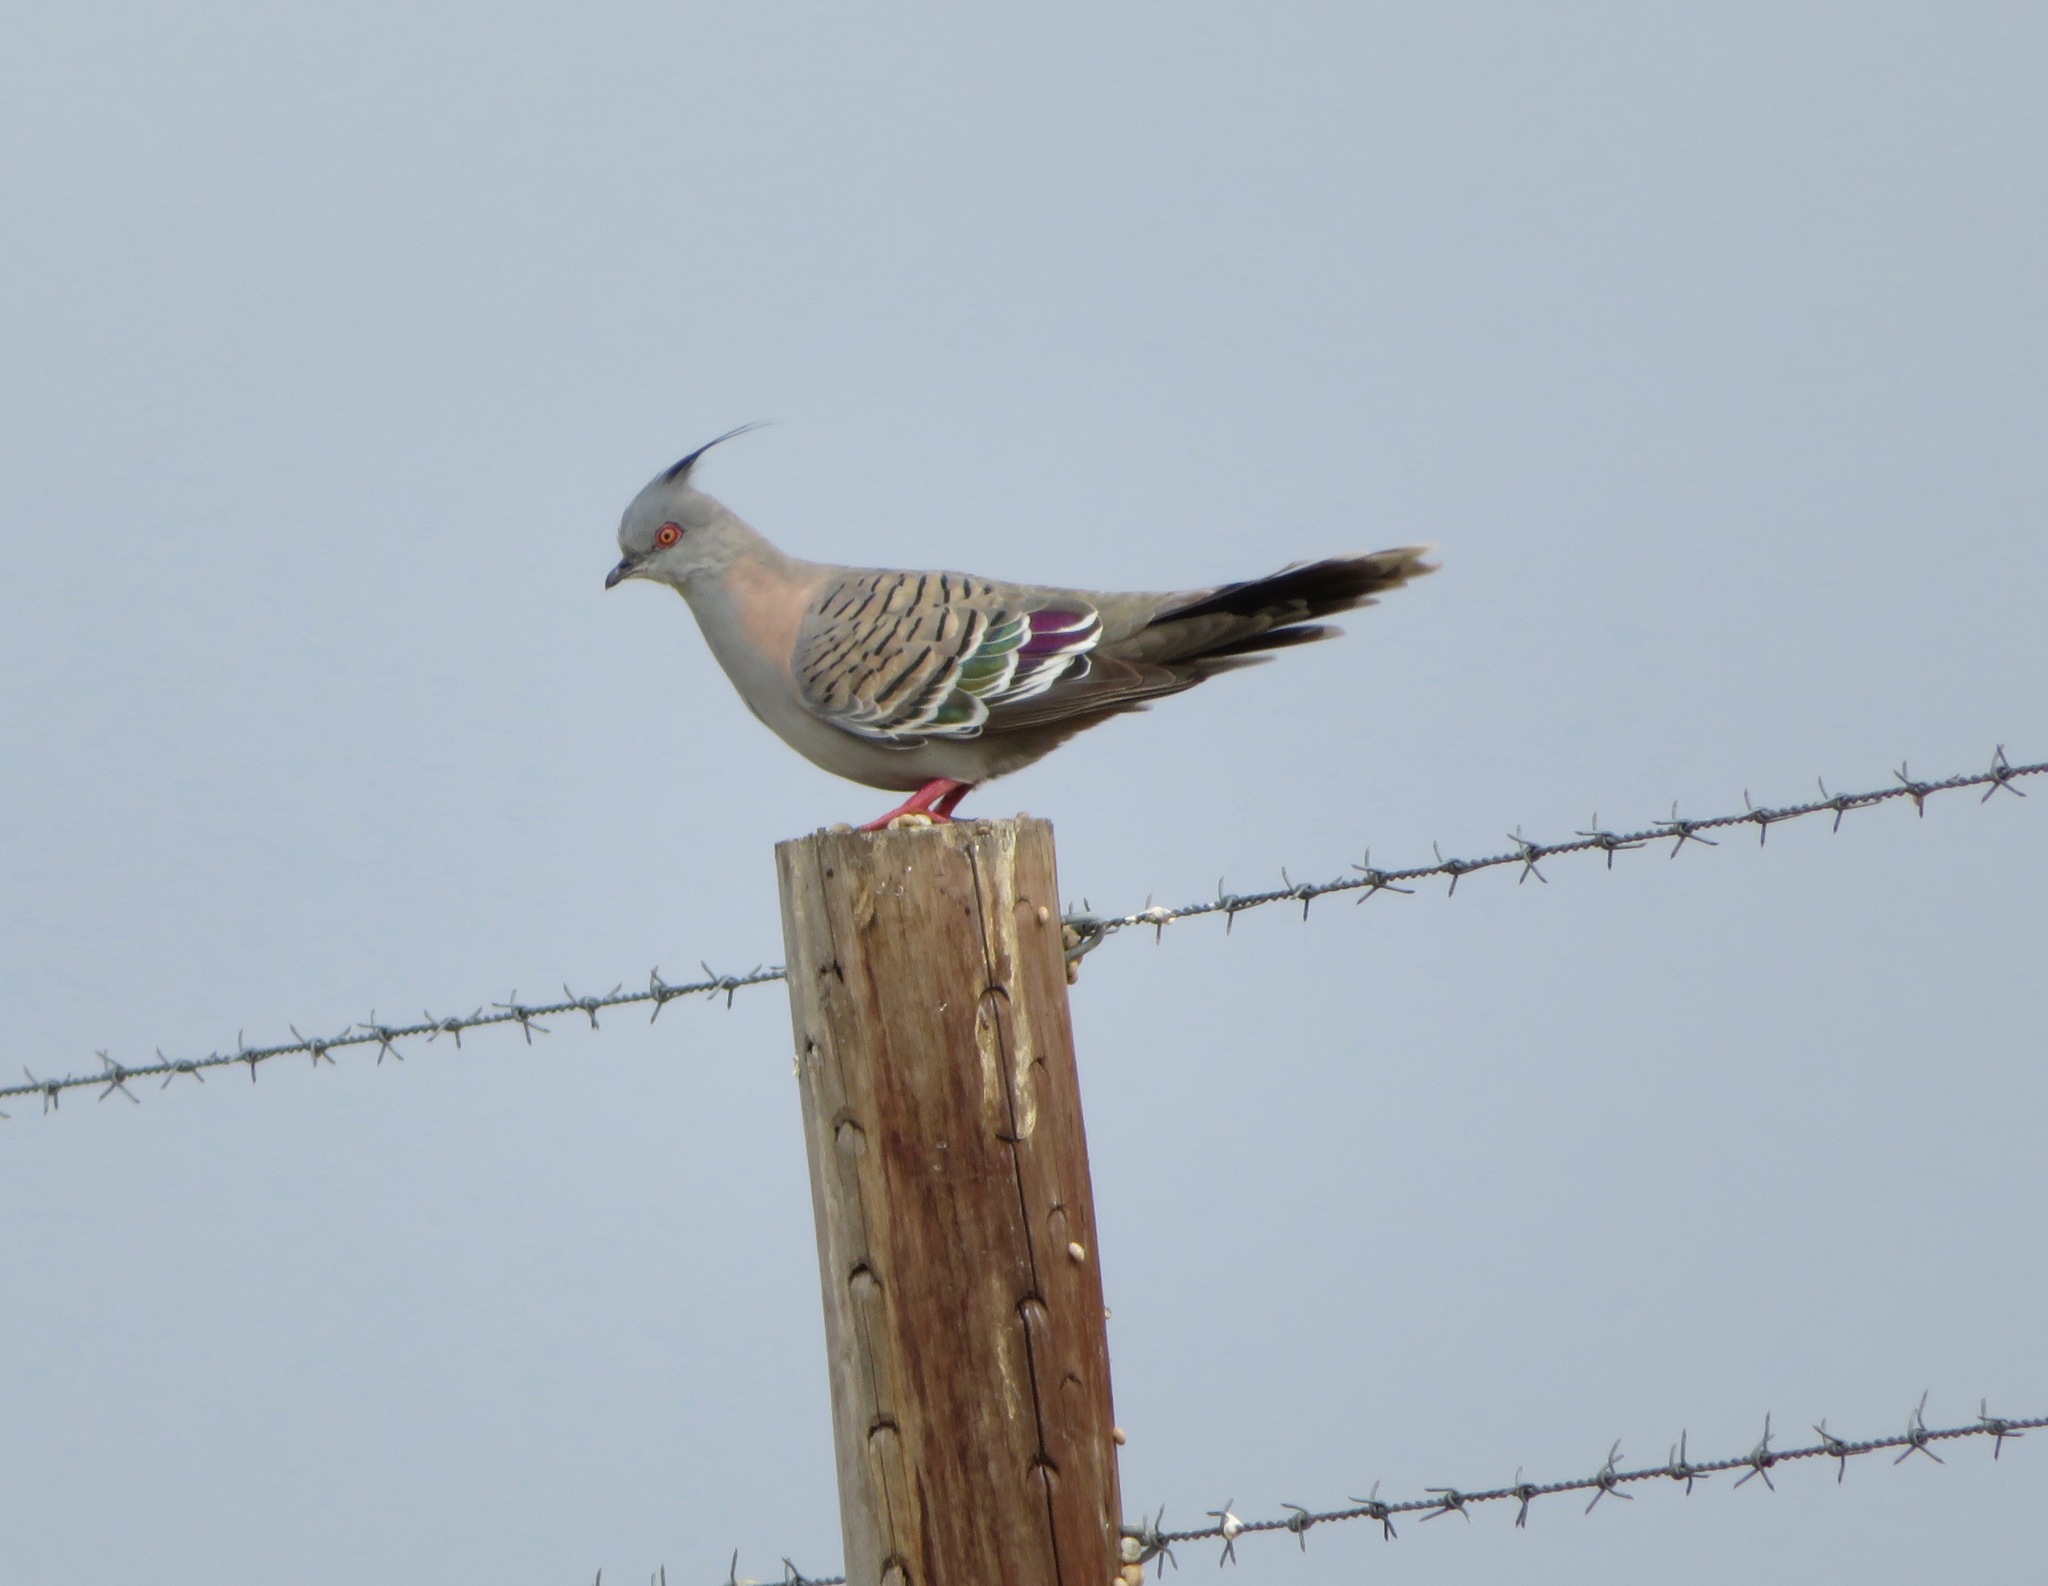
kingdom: Animalia
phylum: Chordata
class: Aves
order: Columbiformes
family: Columbidae
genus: Ocyphaps
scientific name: Ocyphaps lophotes
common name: Crested pigeon
